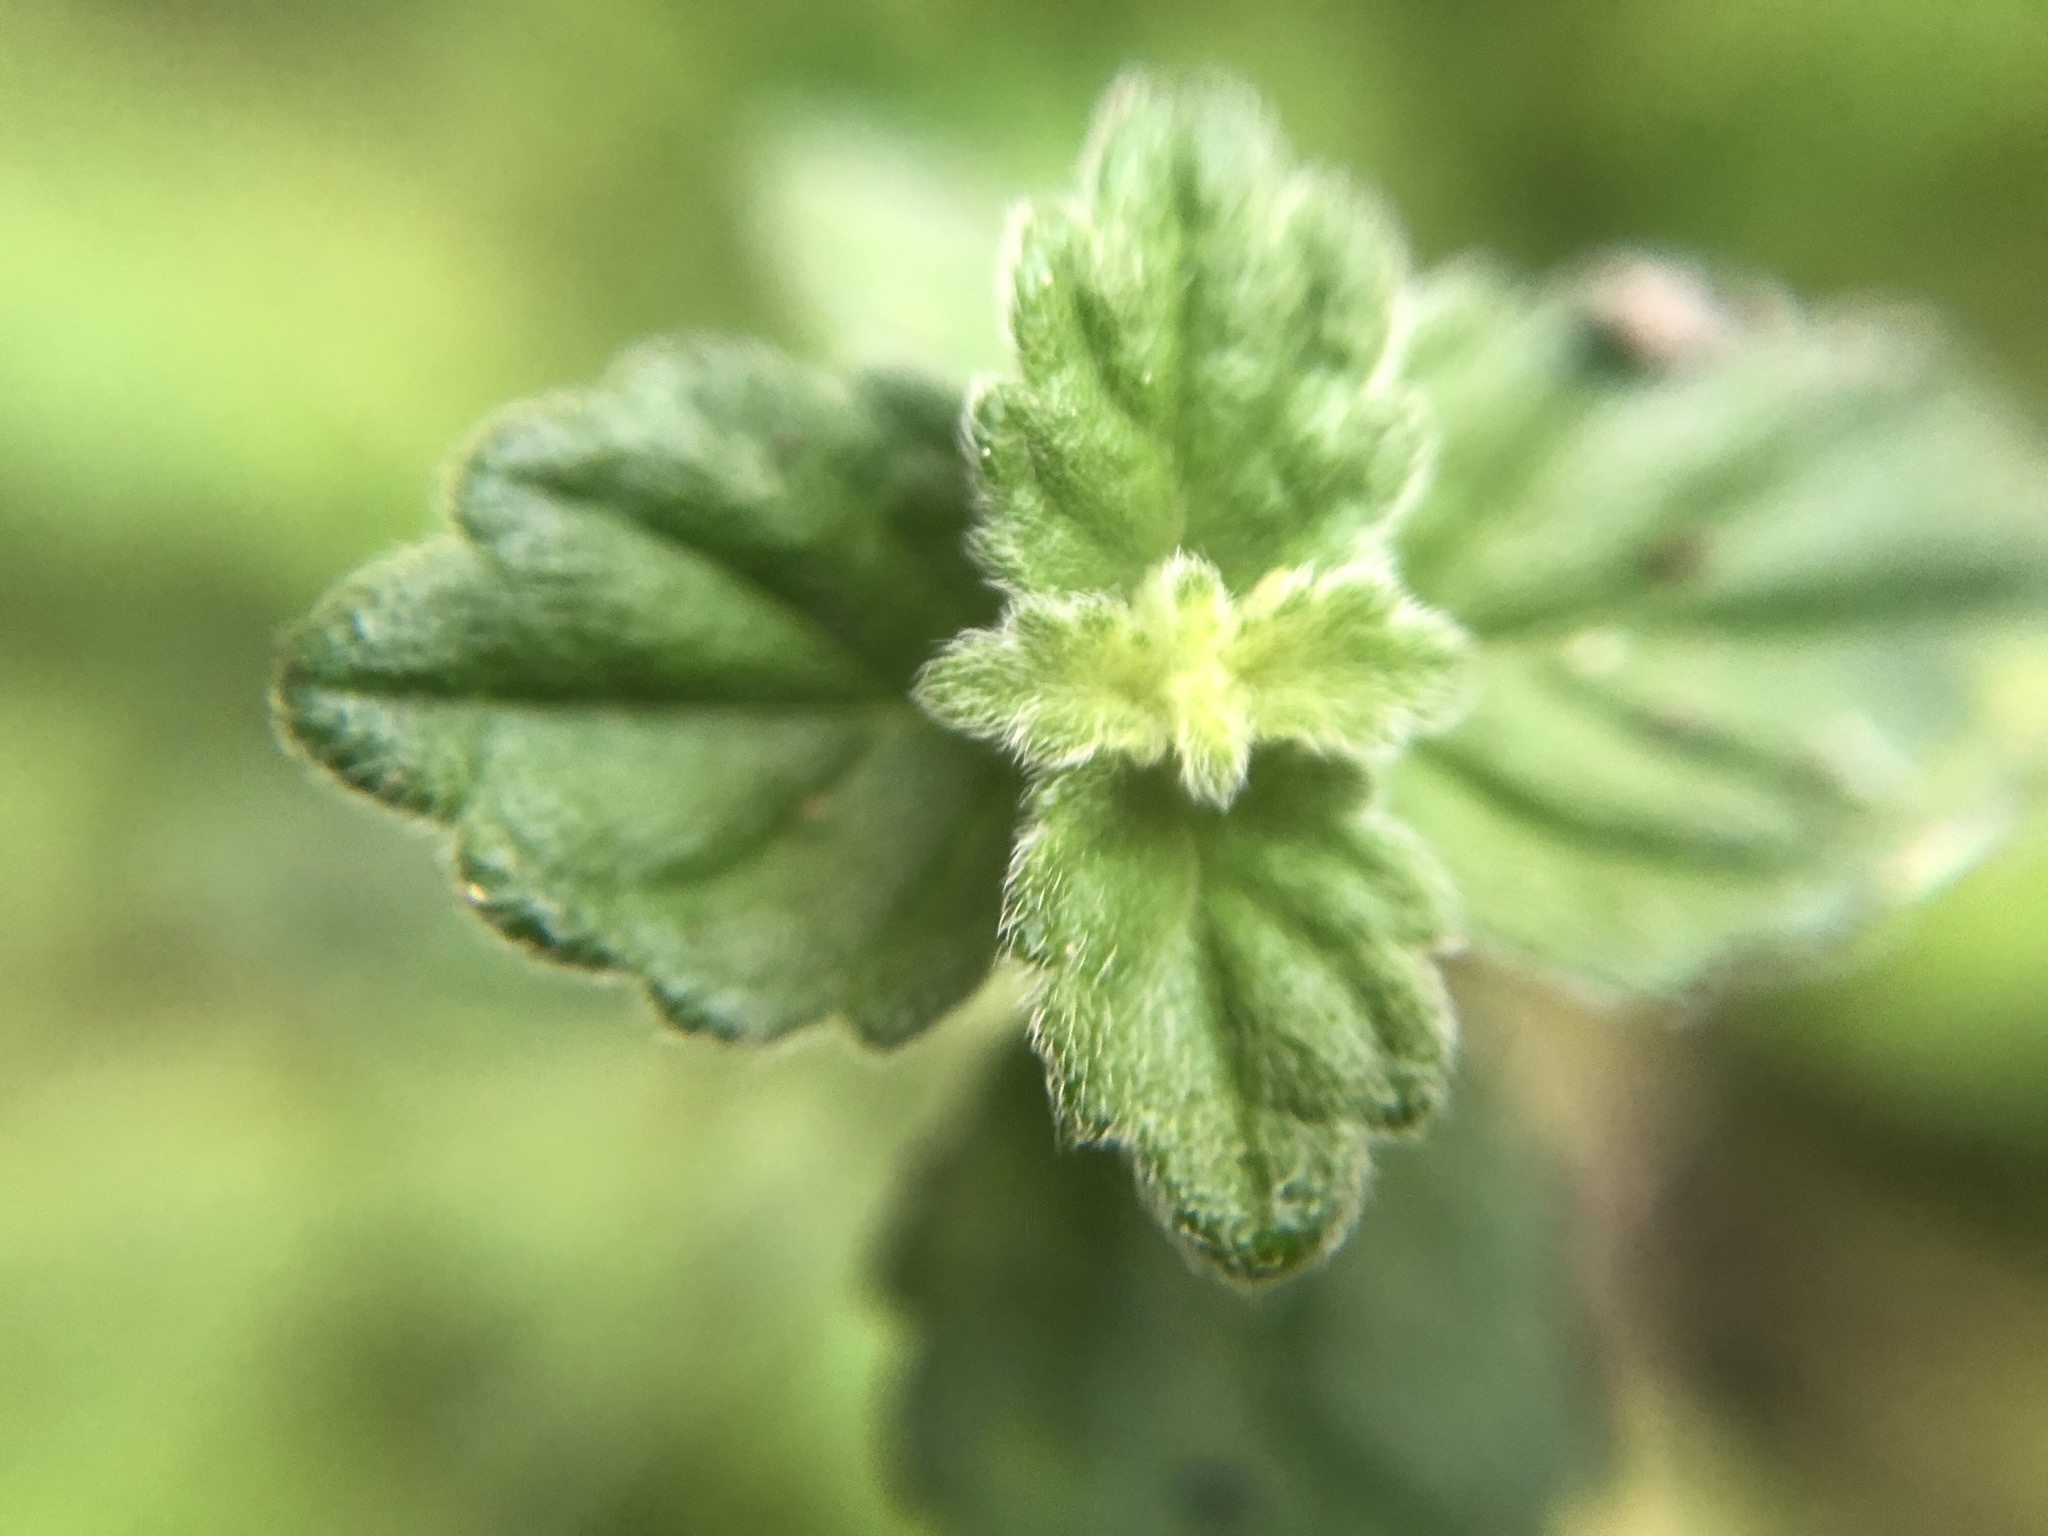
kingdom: Plantae
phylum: Tracheophyta
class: Magnoliopsida
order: Lamiales
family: Lamiaceae
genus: Leucas
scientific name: Leucas chinensis
